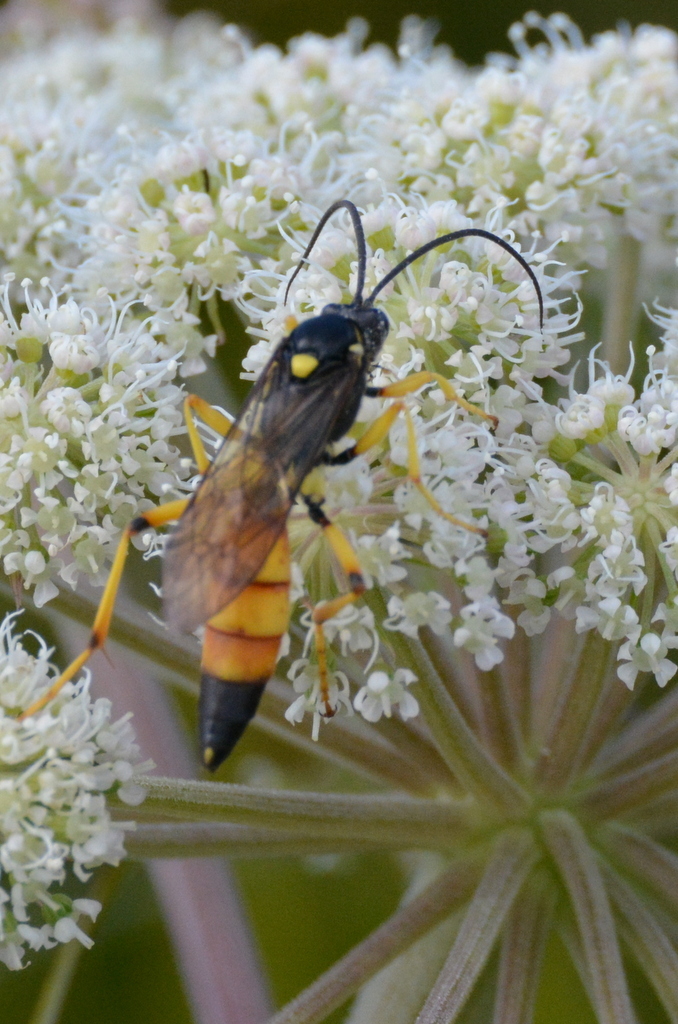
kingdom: Animalia
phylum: Arthropoda
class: Insecta
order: Hymenoptera
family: Ichneumonidae
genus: Diphyus
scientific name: Diphyus amatorius
